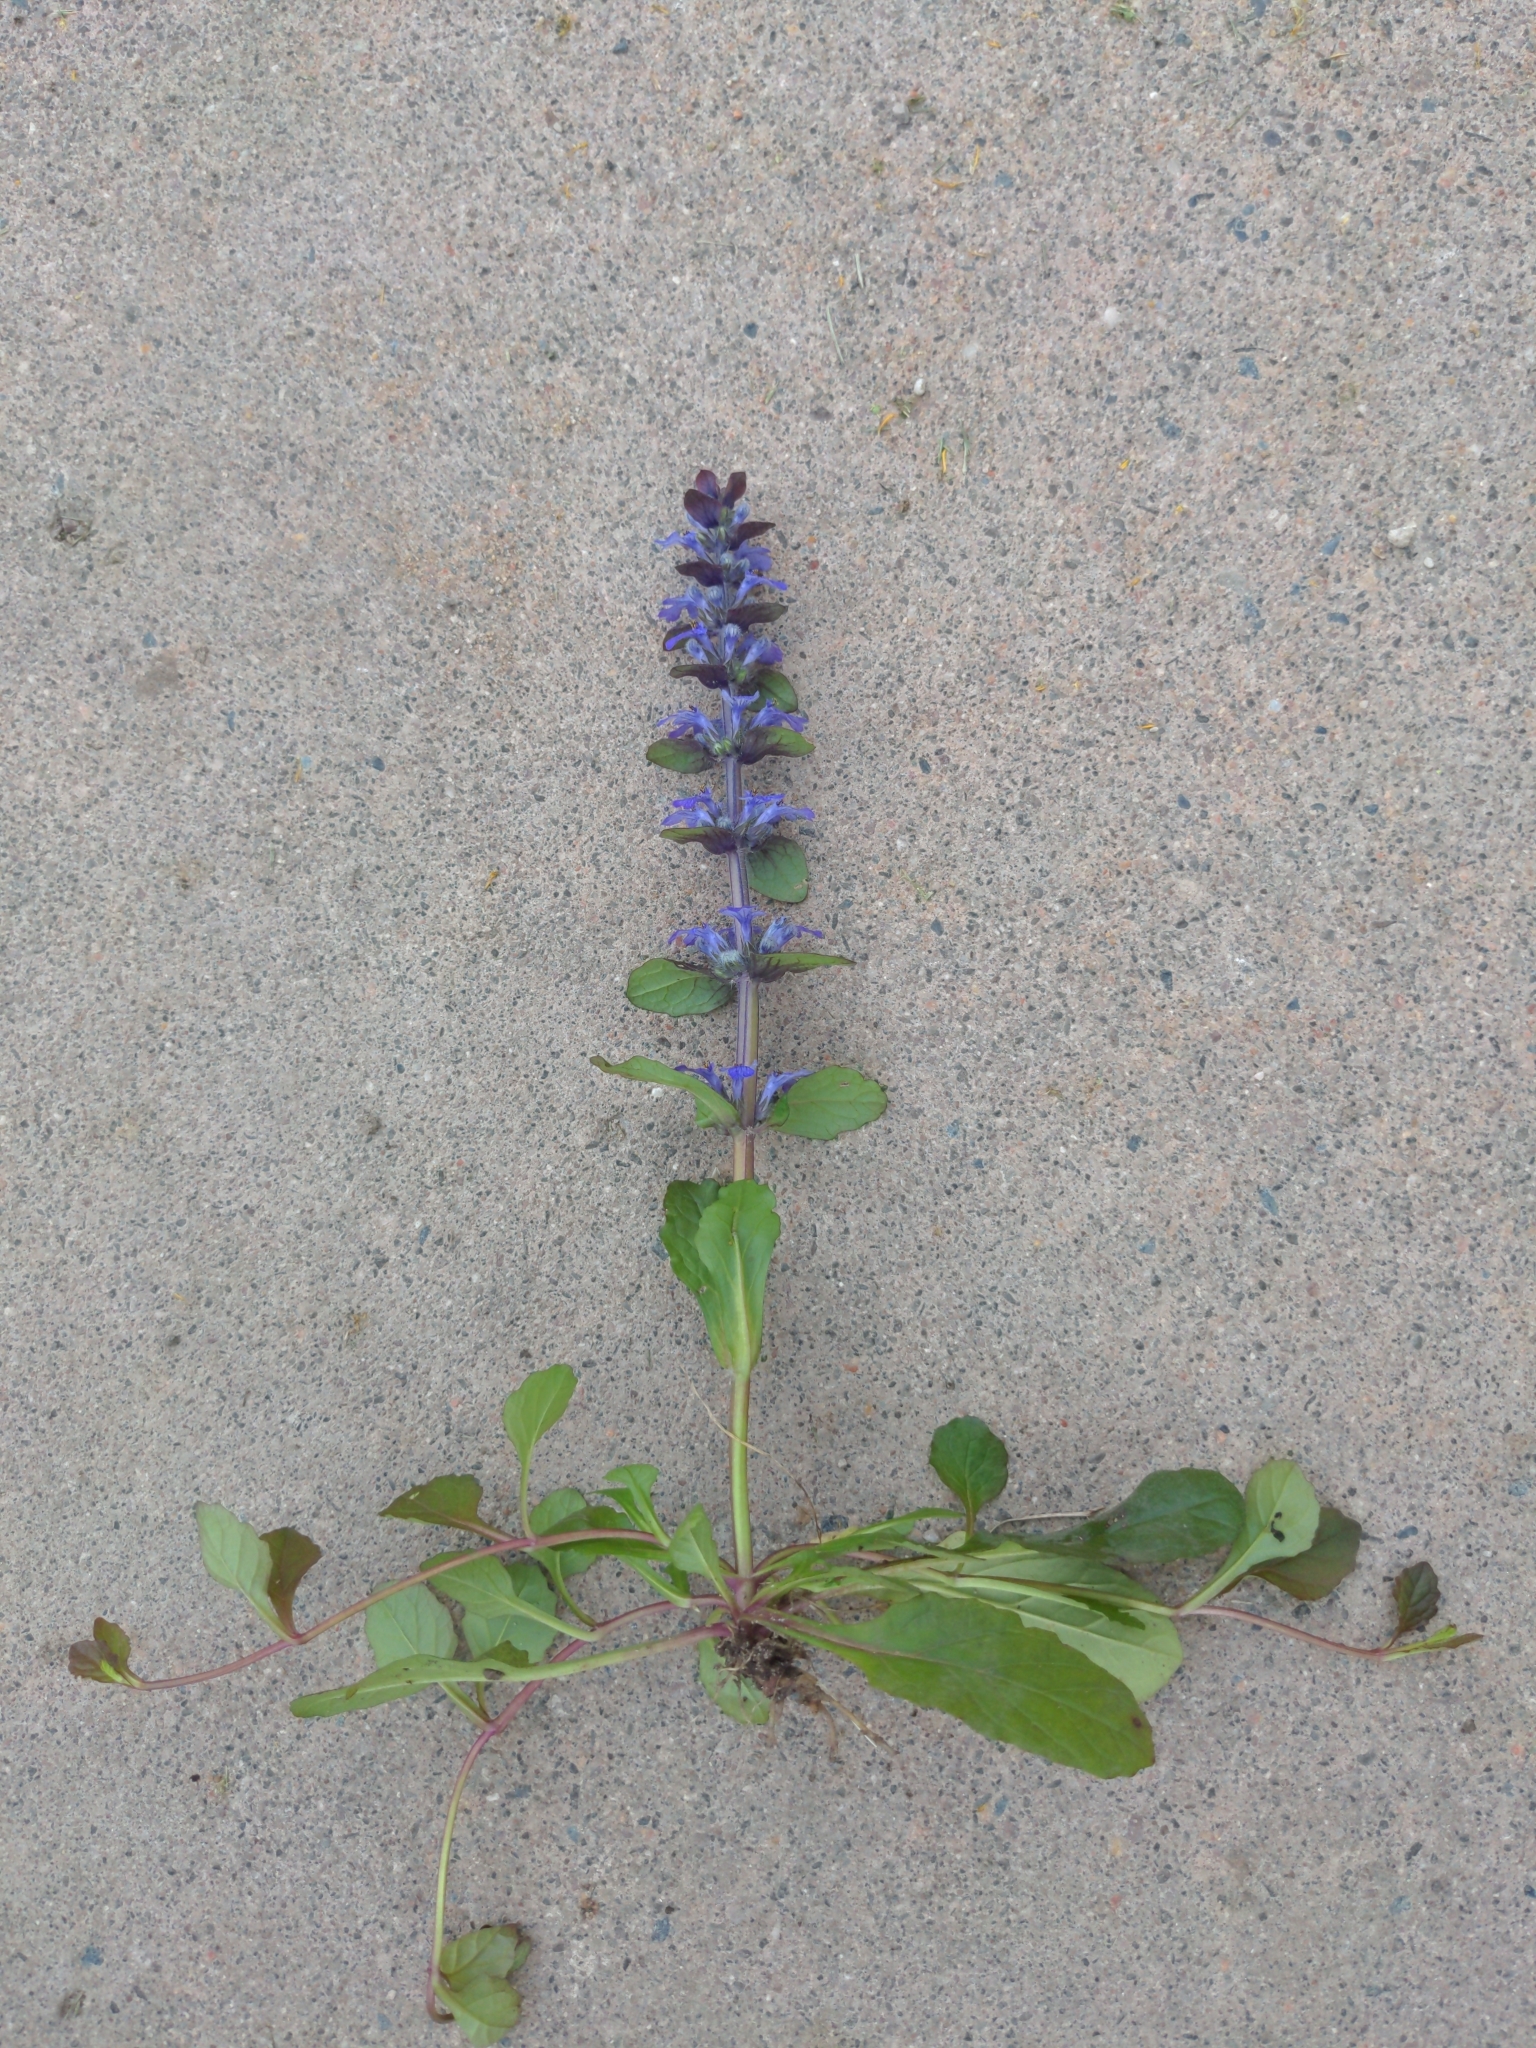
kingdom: Plantae
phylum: Tracheophyta
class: Magnoliopsida
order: Lamiales
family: Lamiaceae
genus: Ajuga
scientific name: Ajuga reptans
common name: Bugle
